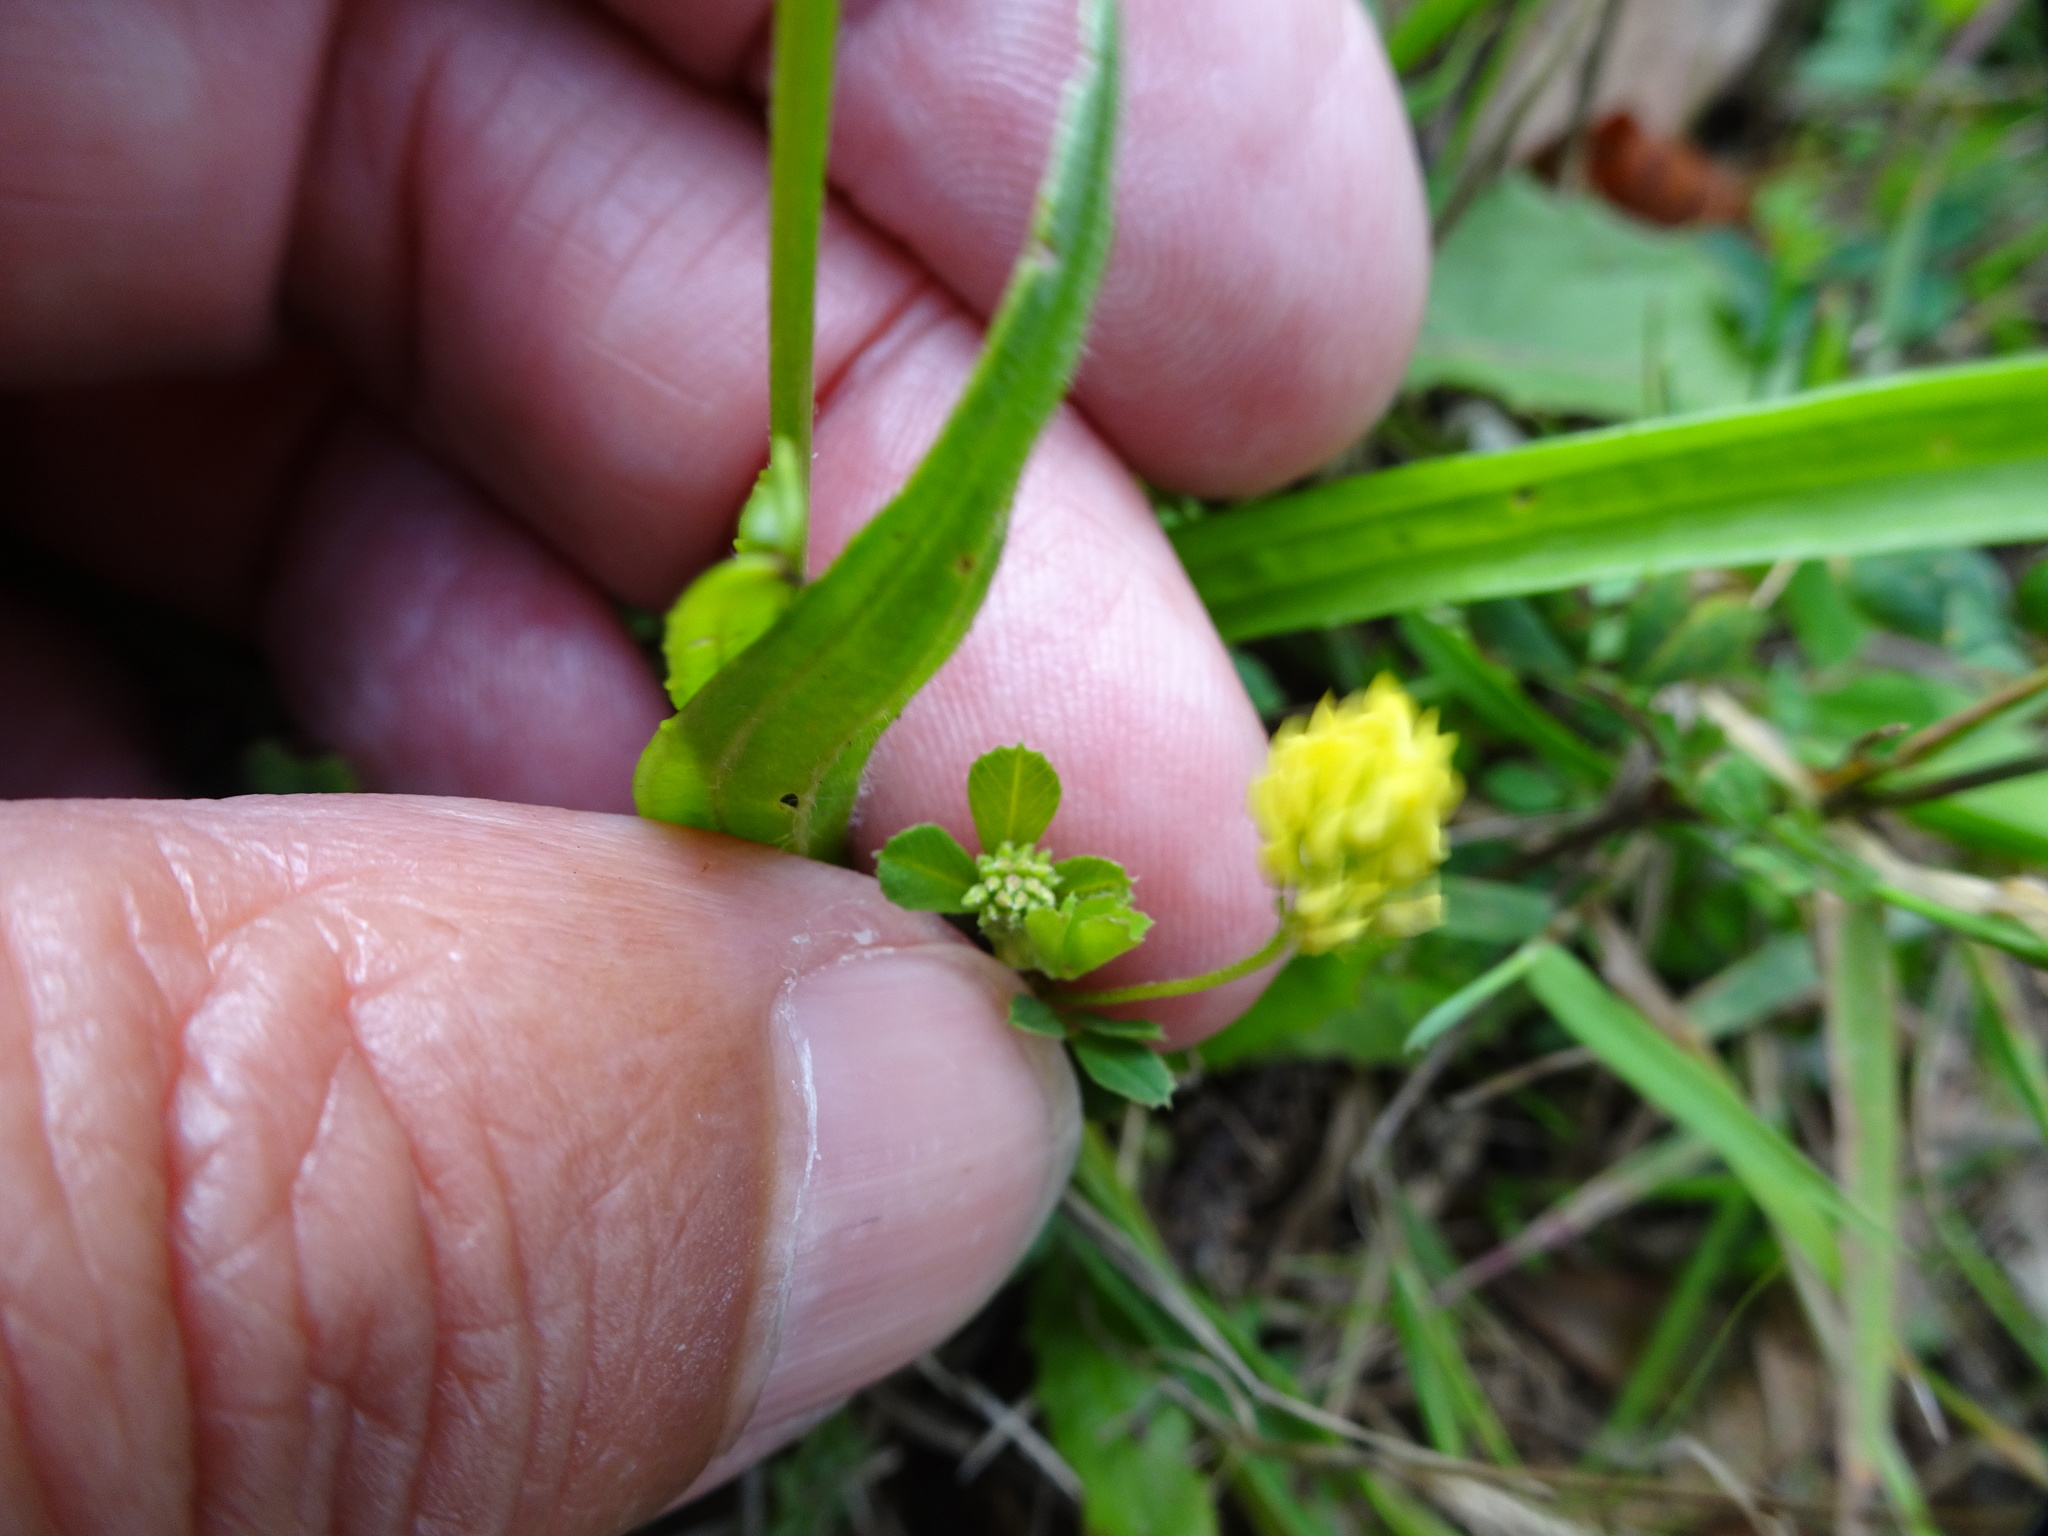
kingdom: Plantae
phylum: Tracheophyta
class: Magnoliopsida
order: Fabales
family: Fabaceae
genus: Medicago
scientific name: Medicago lupulina
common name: Black medick
